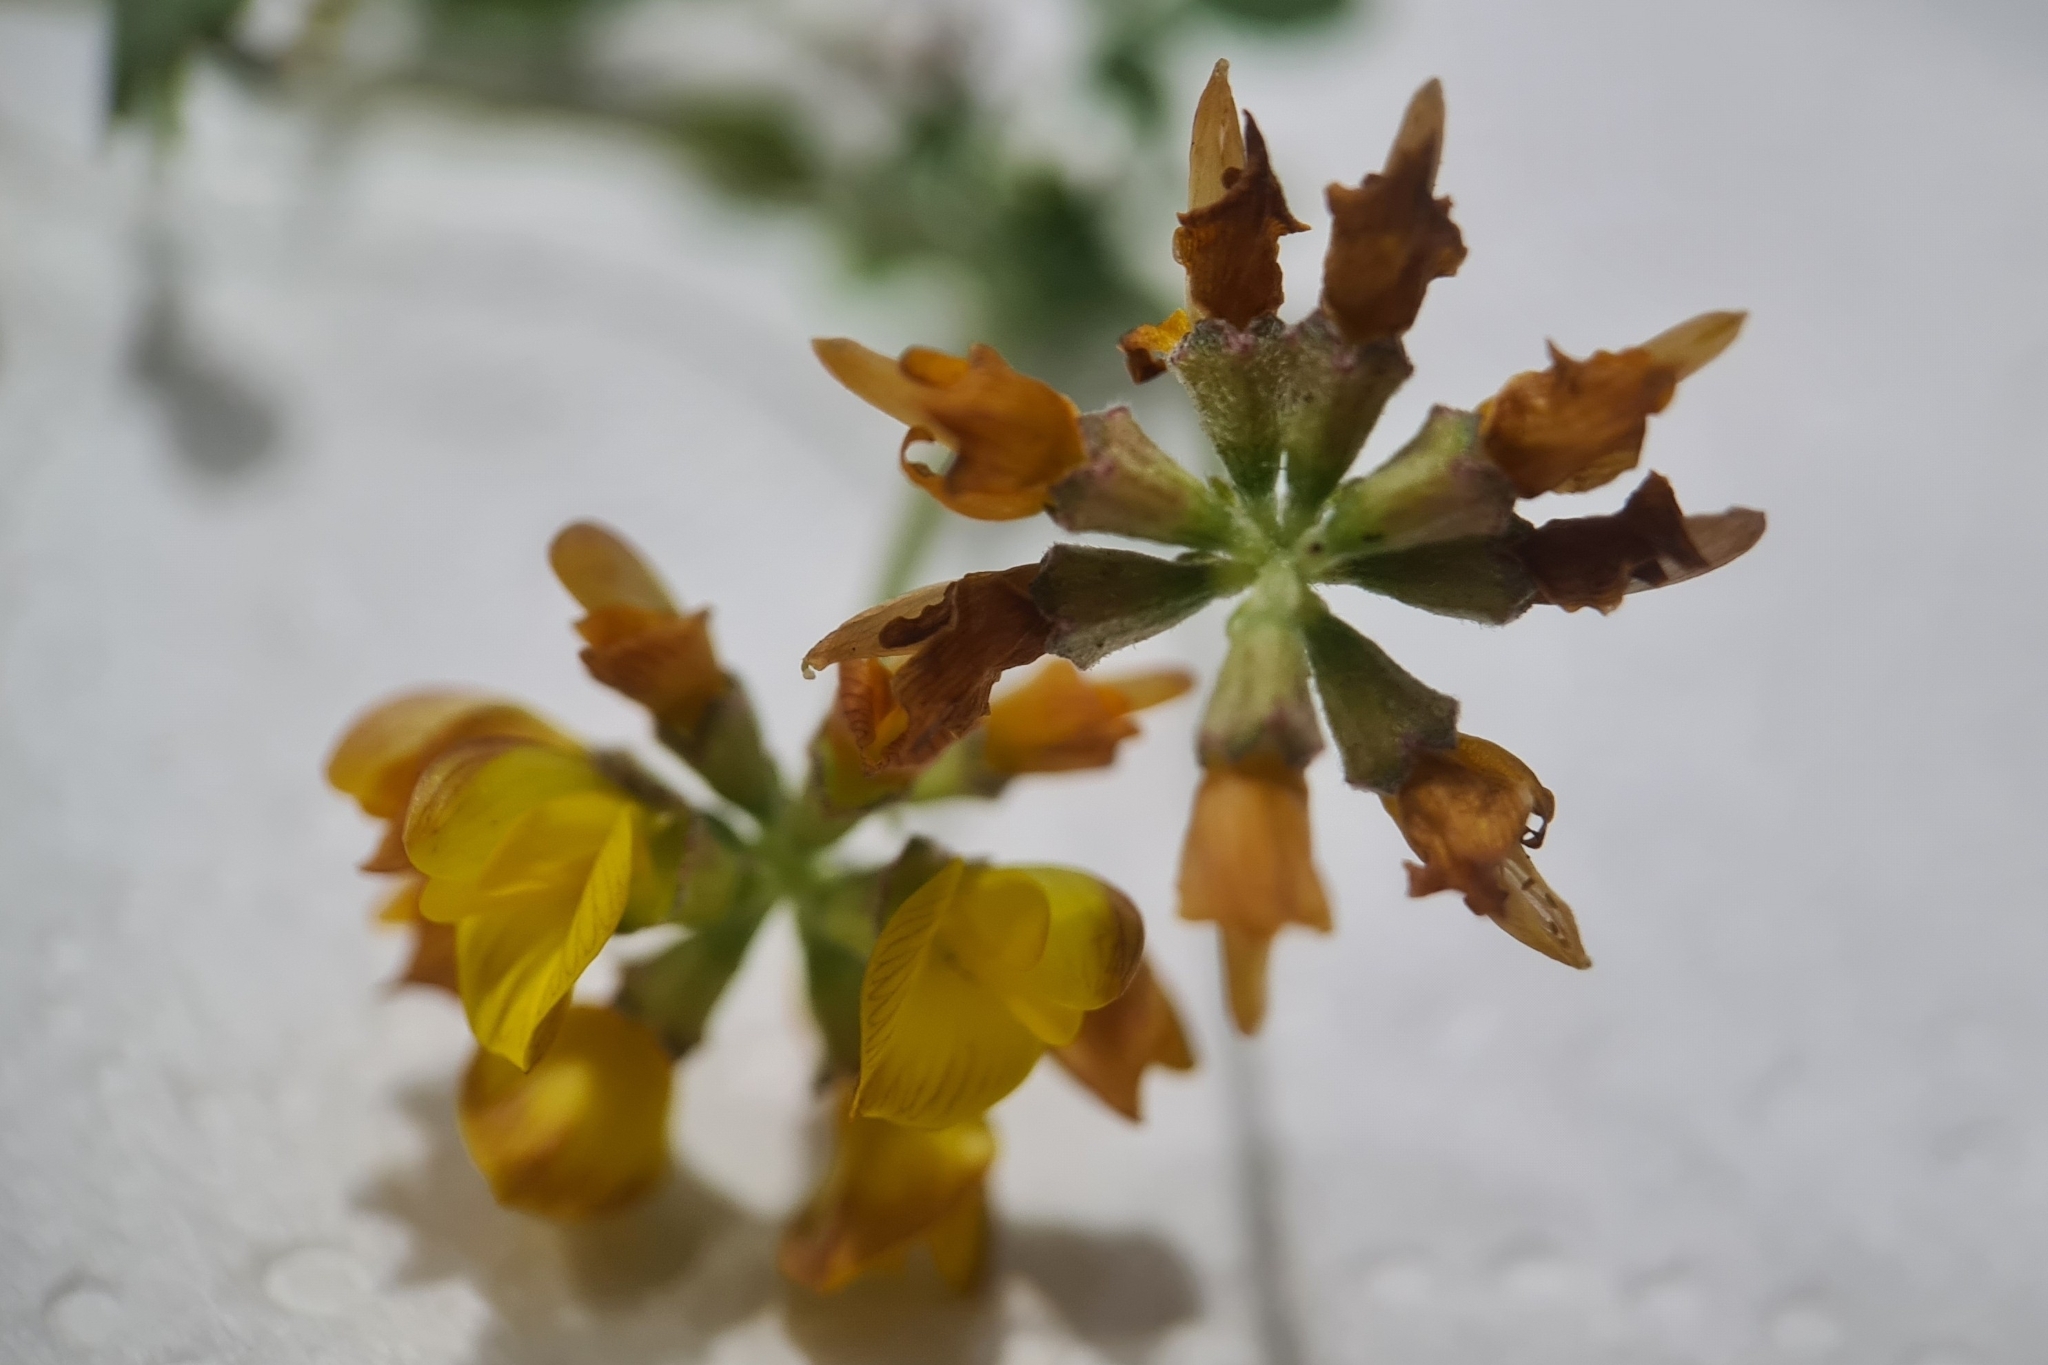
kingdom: Plantae
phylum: Tracheophyta
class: Magnoliopsida
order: Fabales
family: Fabaceae
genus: Listia
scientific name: Listia bainesii
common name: Lotononis
